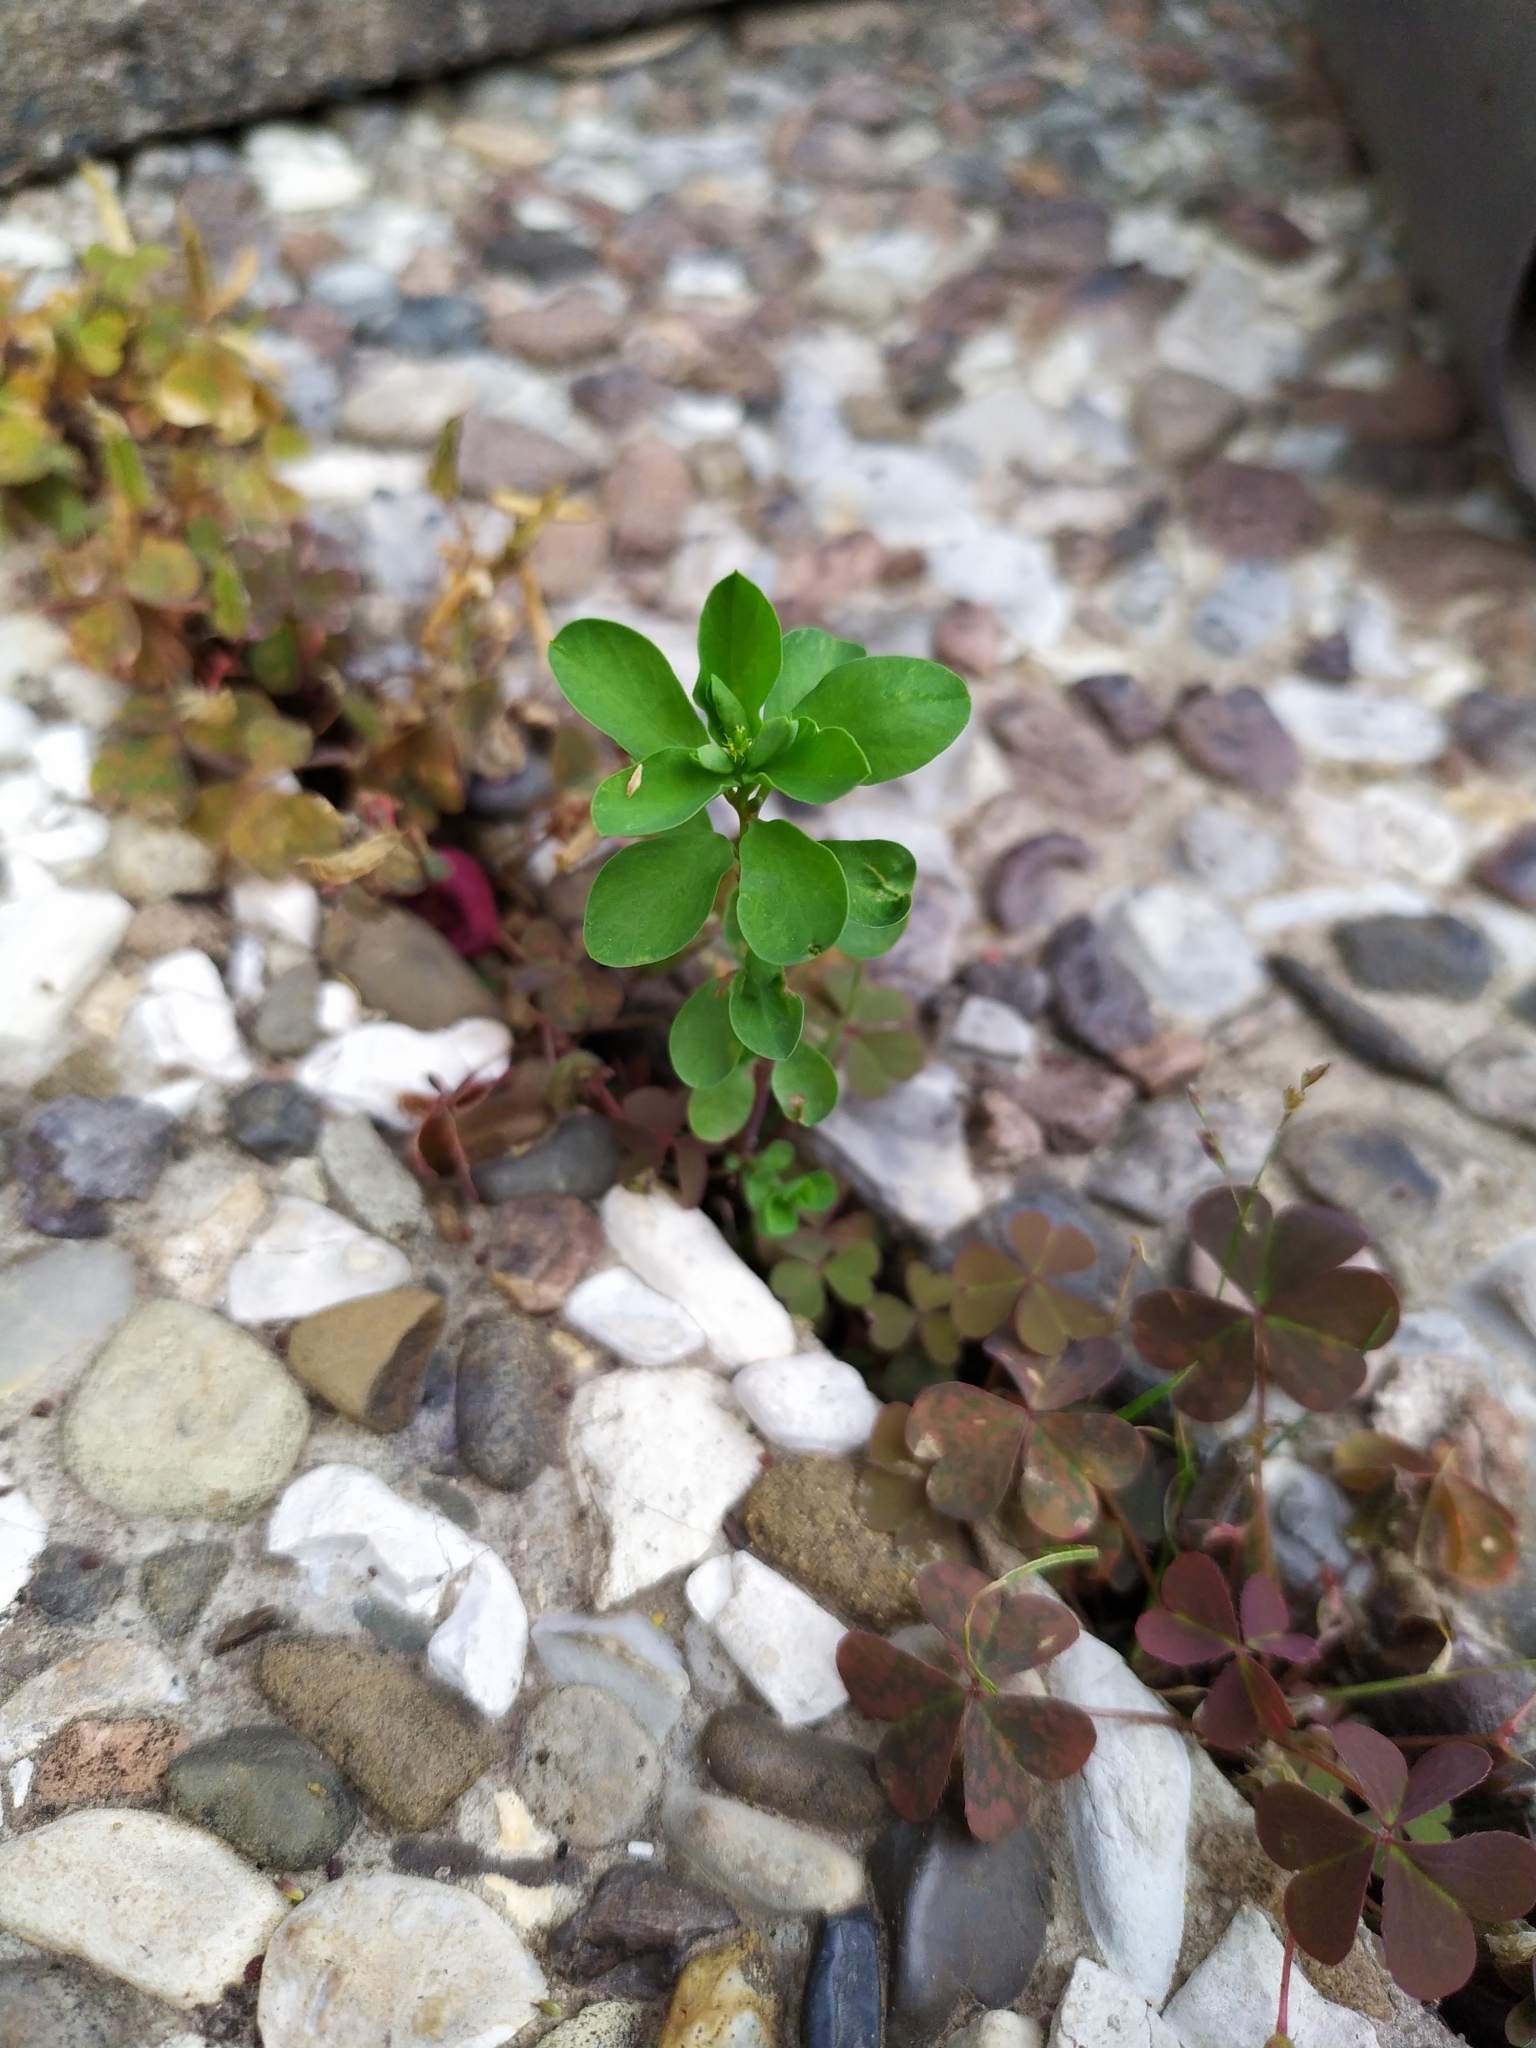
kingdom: Plantae
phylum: Tracheophyta
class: Magnoliopsida
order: Malpighiales
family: Euphorbiaceae
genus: Euphorbia
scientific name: Euphorbia peplus
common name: Petty spurge
